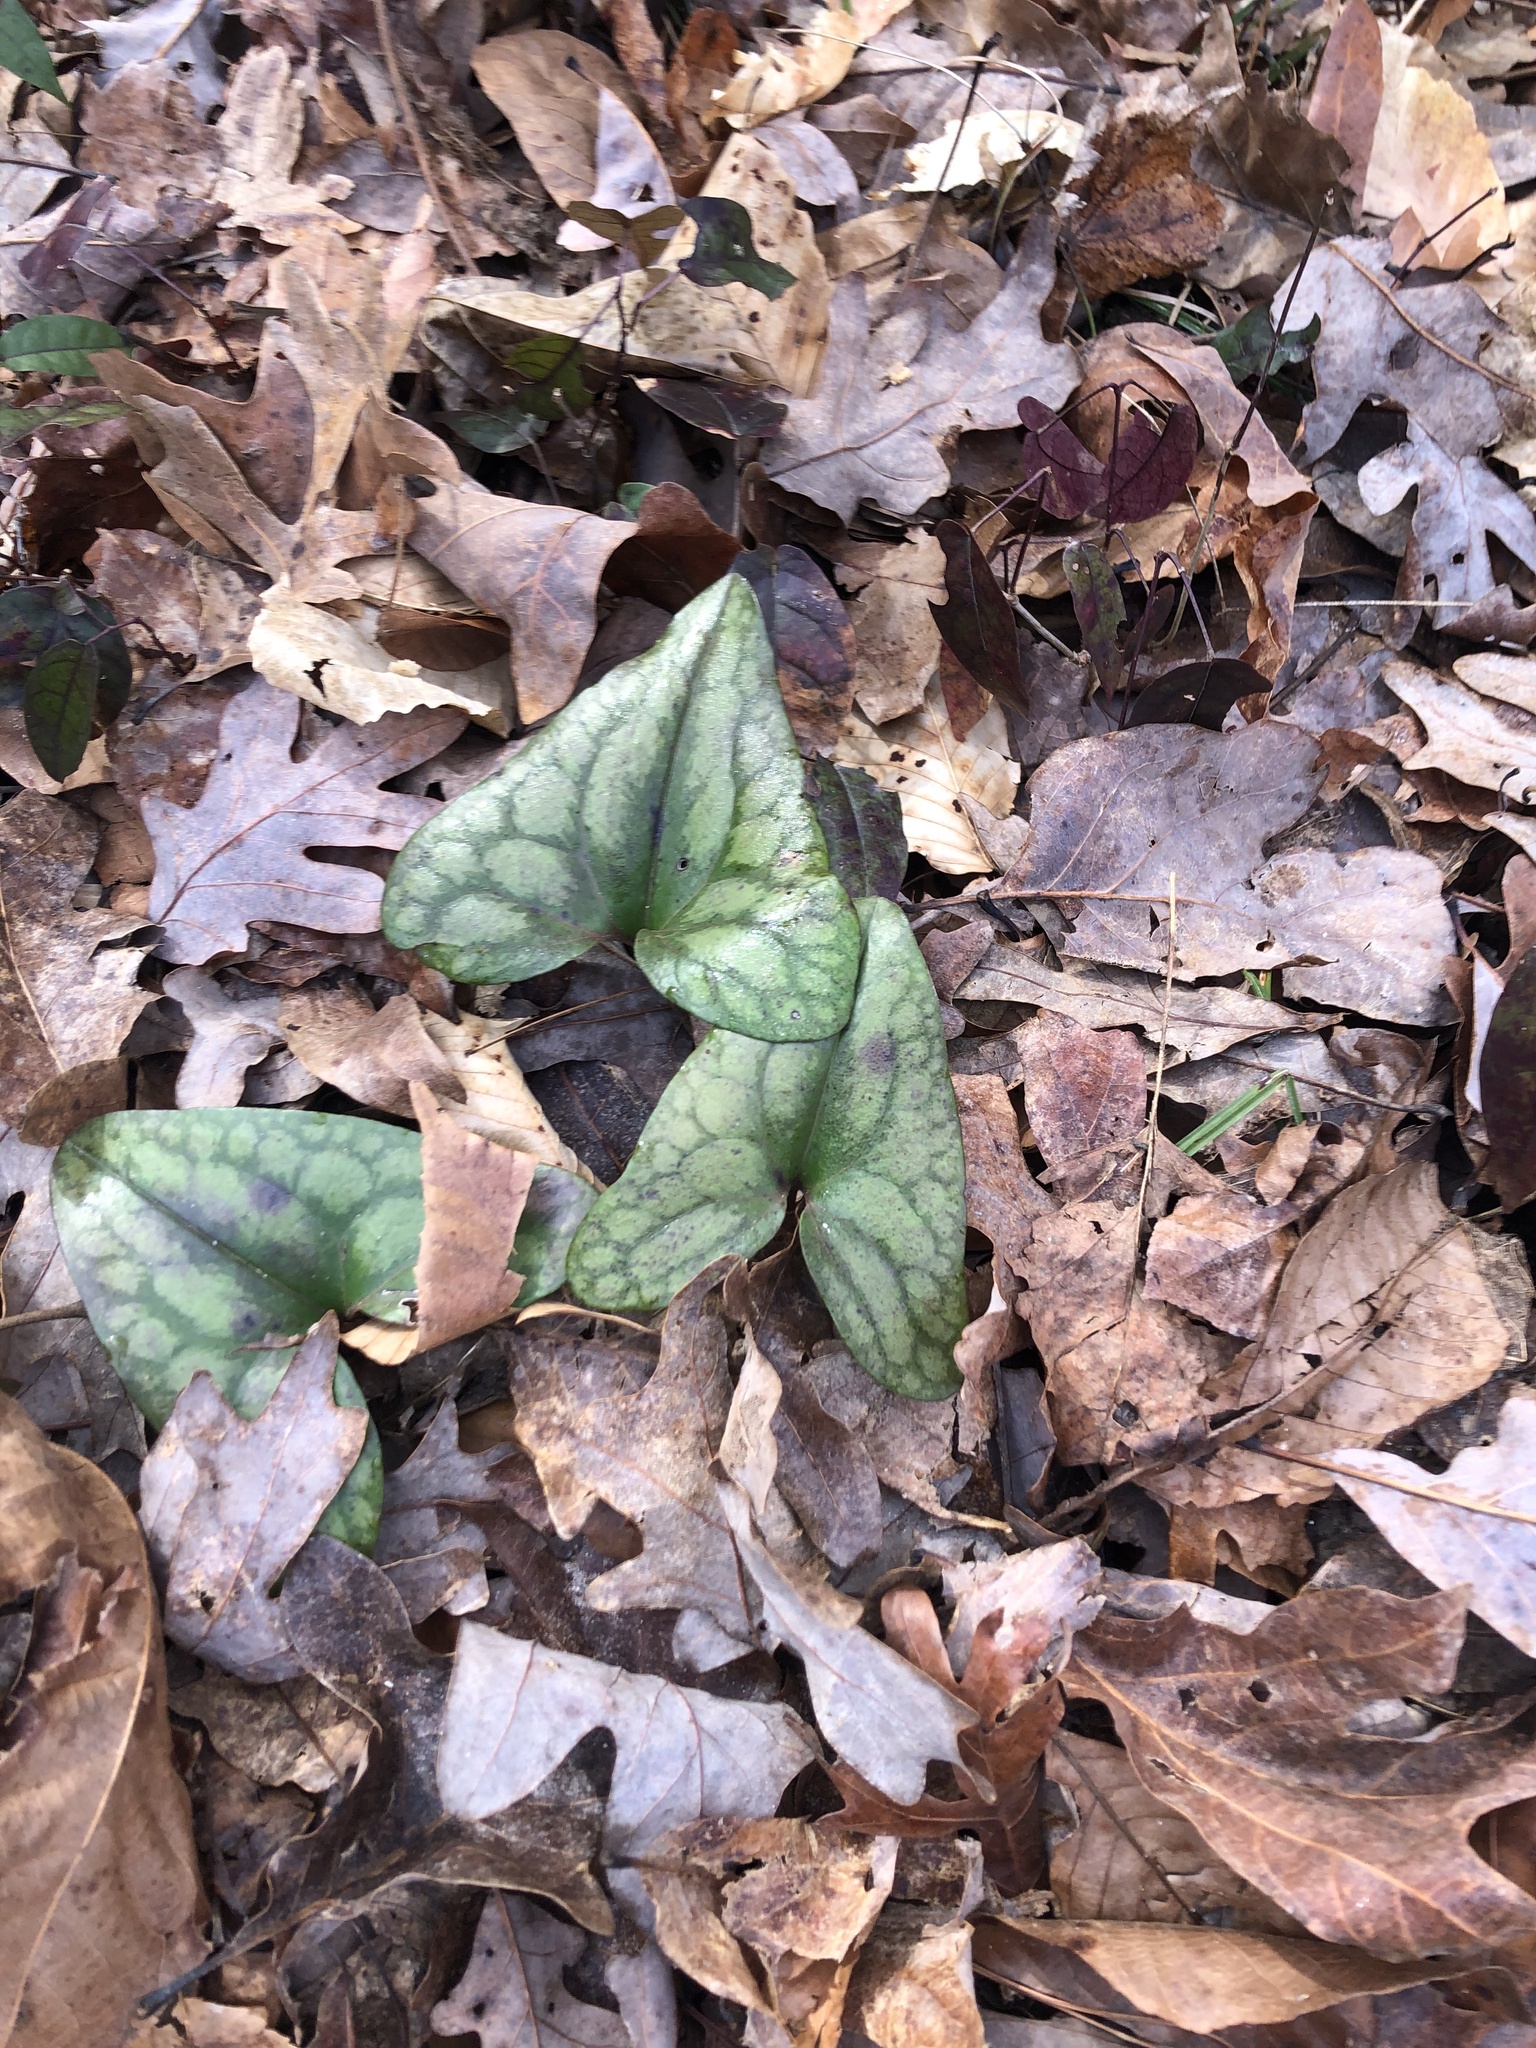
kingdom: Plantae
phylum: Tracheophyta
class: Magnoliopsida
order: Piperales
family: Aristolochiaceae
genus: Hexastylis
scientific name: Hexastylis arifolia
